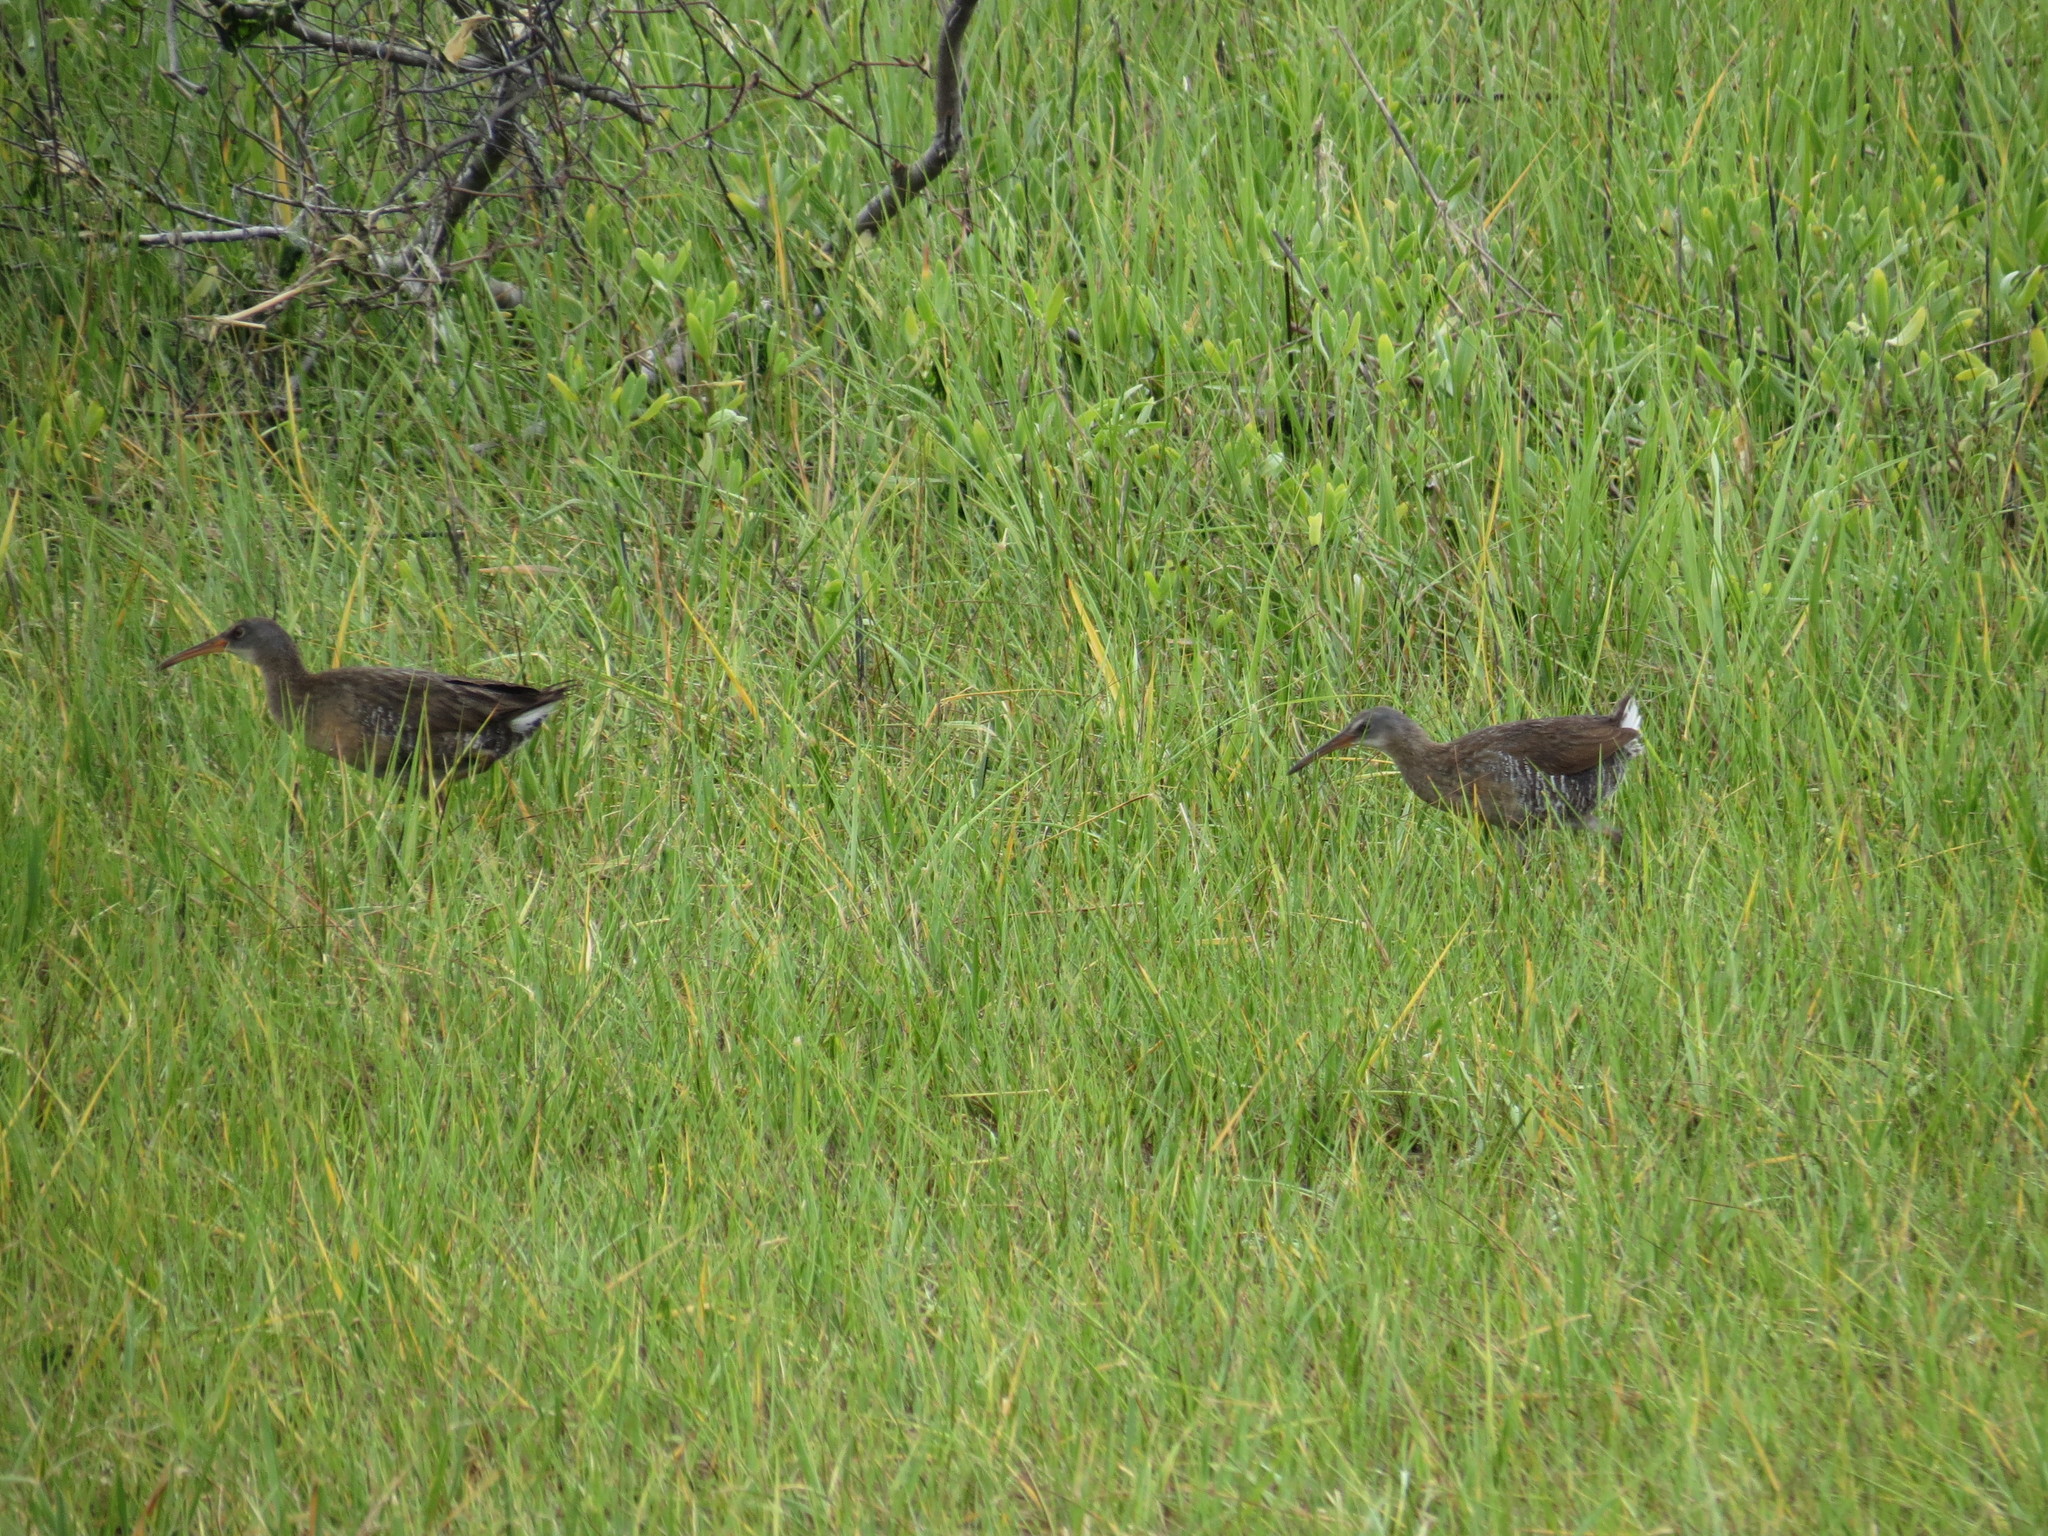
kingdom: Animalia
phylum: Chordata
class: Aves
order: Gruiformes
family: Rallidae
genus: Rallus
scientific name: Rallus crepitans
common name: Clapper rail
